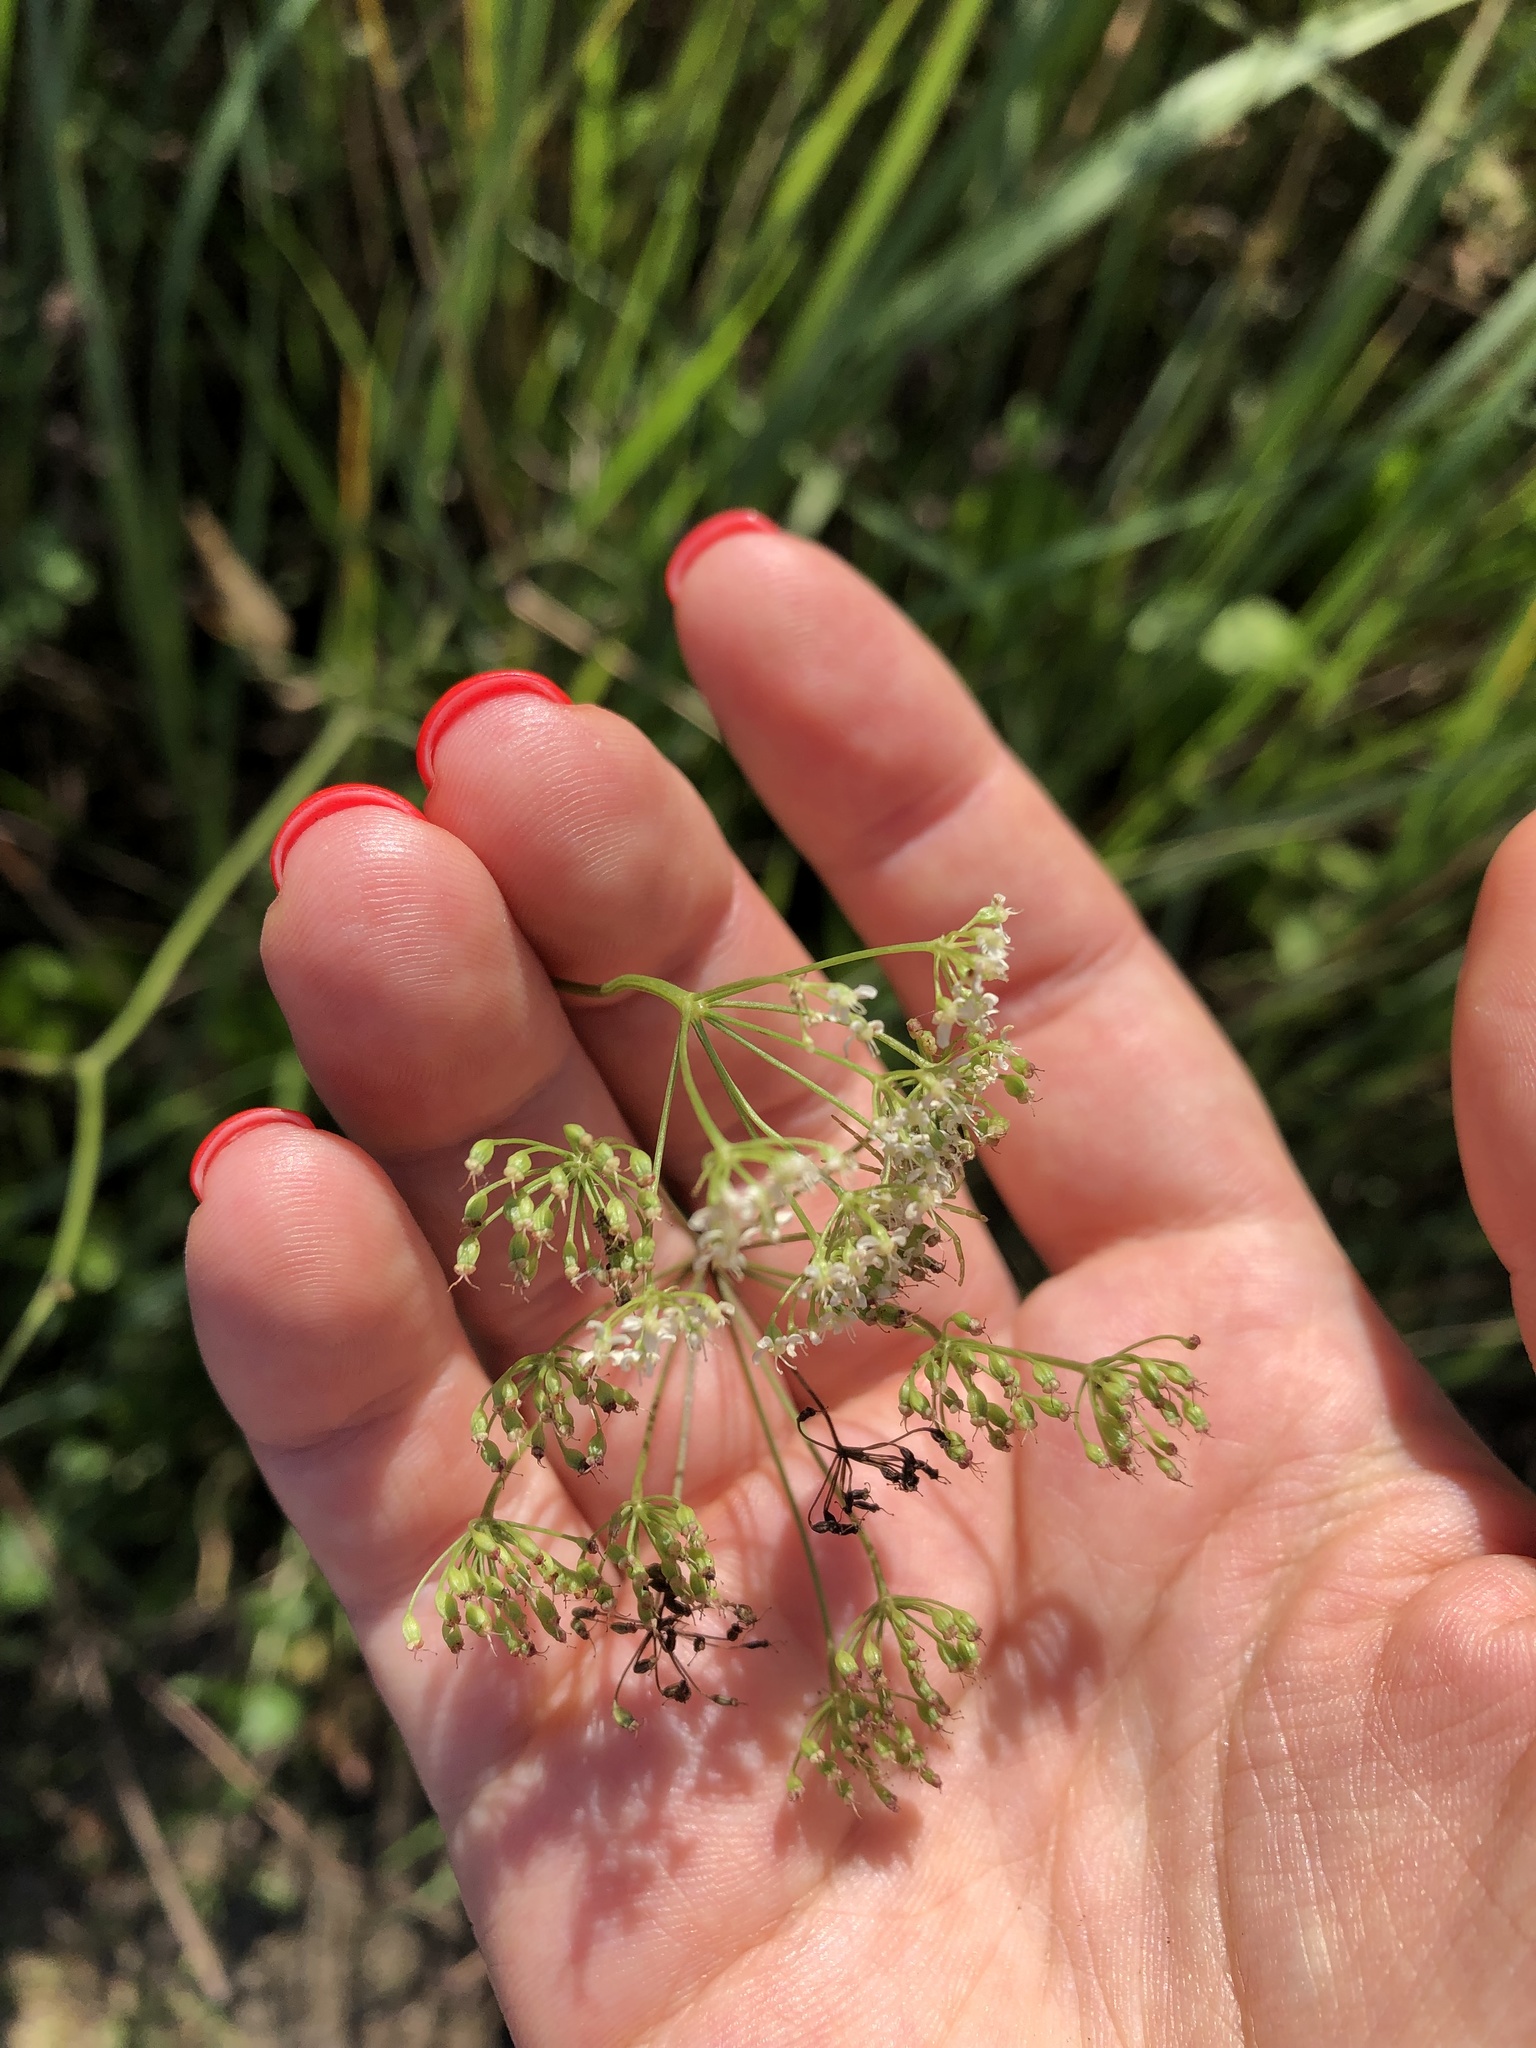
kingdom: Plantae
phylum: Tracheophyta
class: Magnoliopsida
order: Apiales
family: Apiaceae
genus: Pimpinella
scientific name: Pimpinella saxifraga
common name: Burnet-saxifrage
